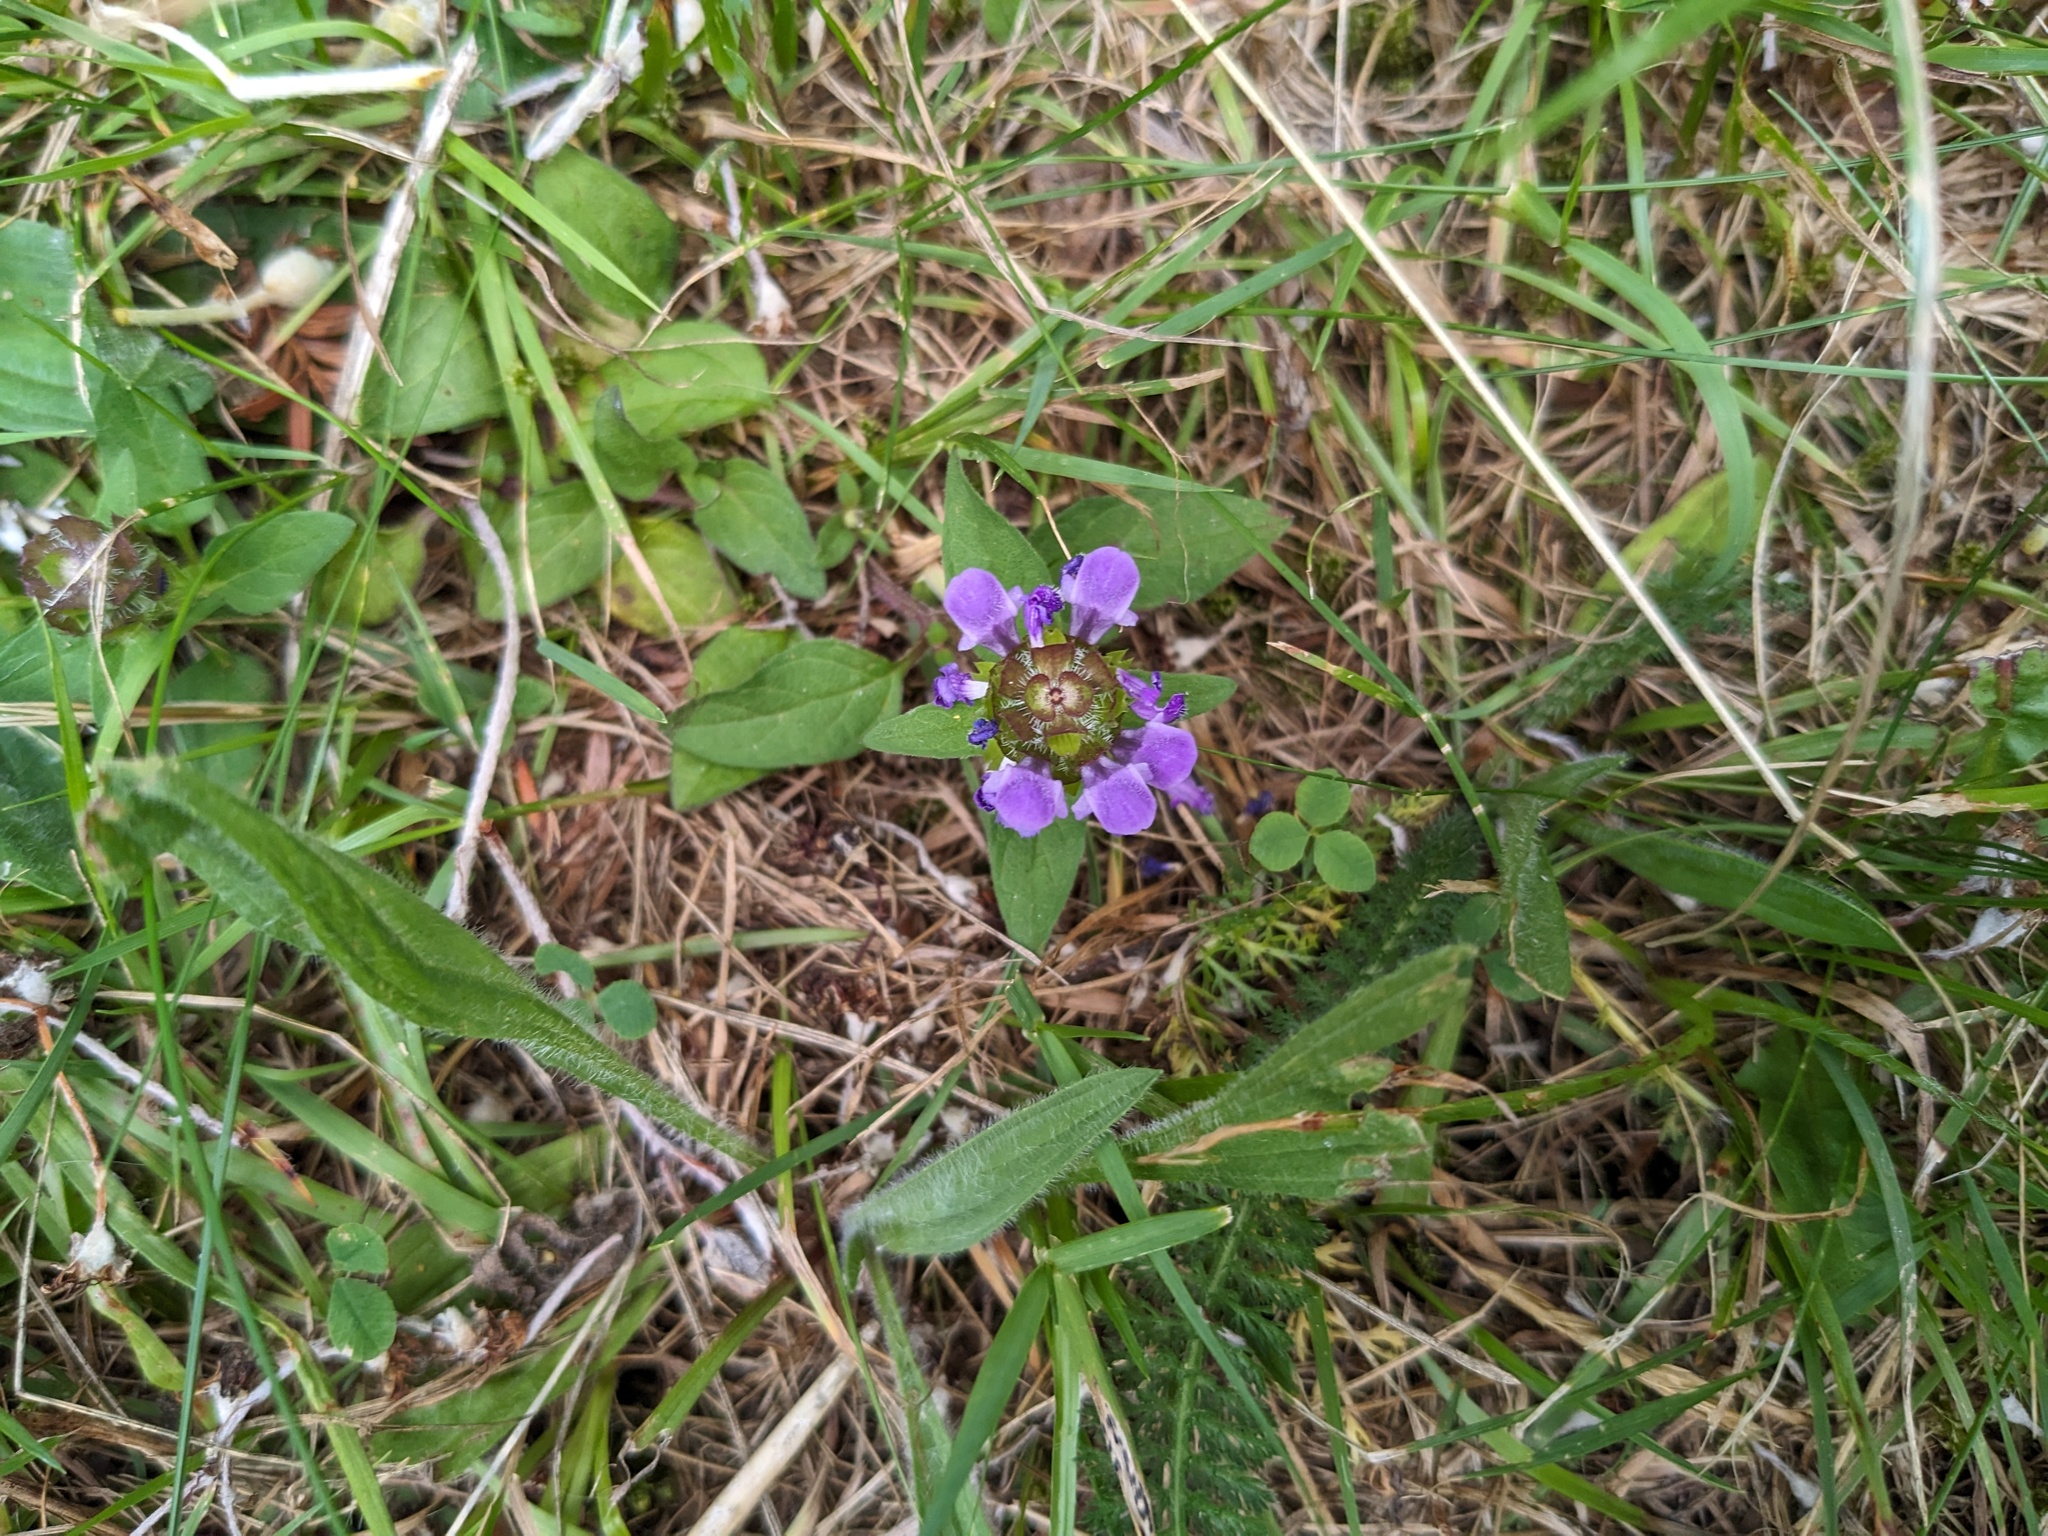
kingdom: Plantae
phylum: Tracheophyta
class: Magnoliopsida
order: Lamiales
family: Lamiaceae
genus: Prunella
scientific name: Prunella vulgaris
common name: Heal-all
